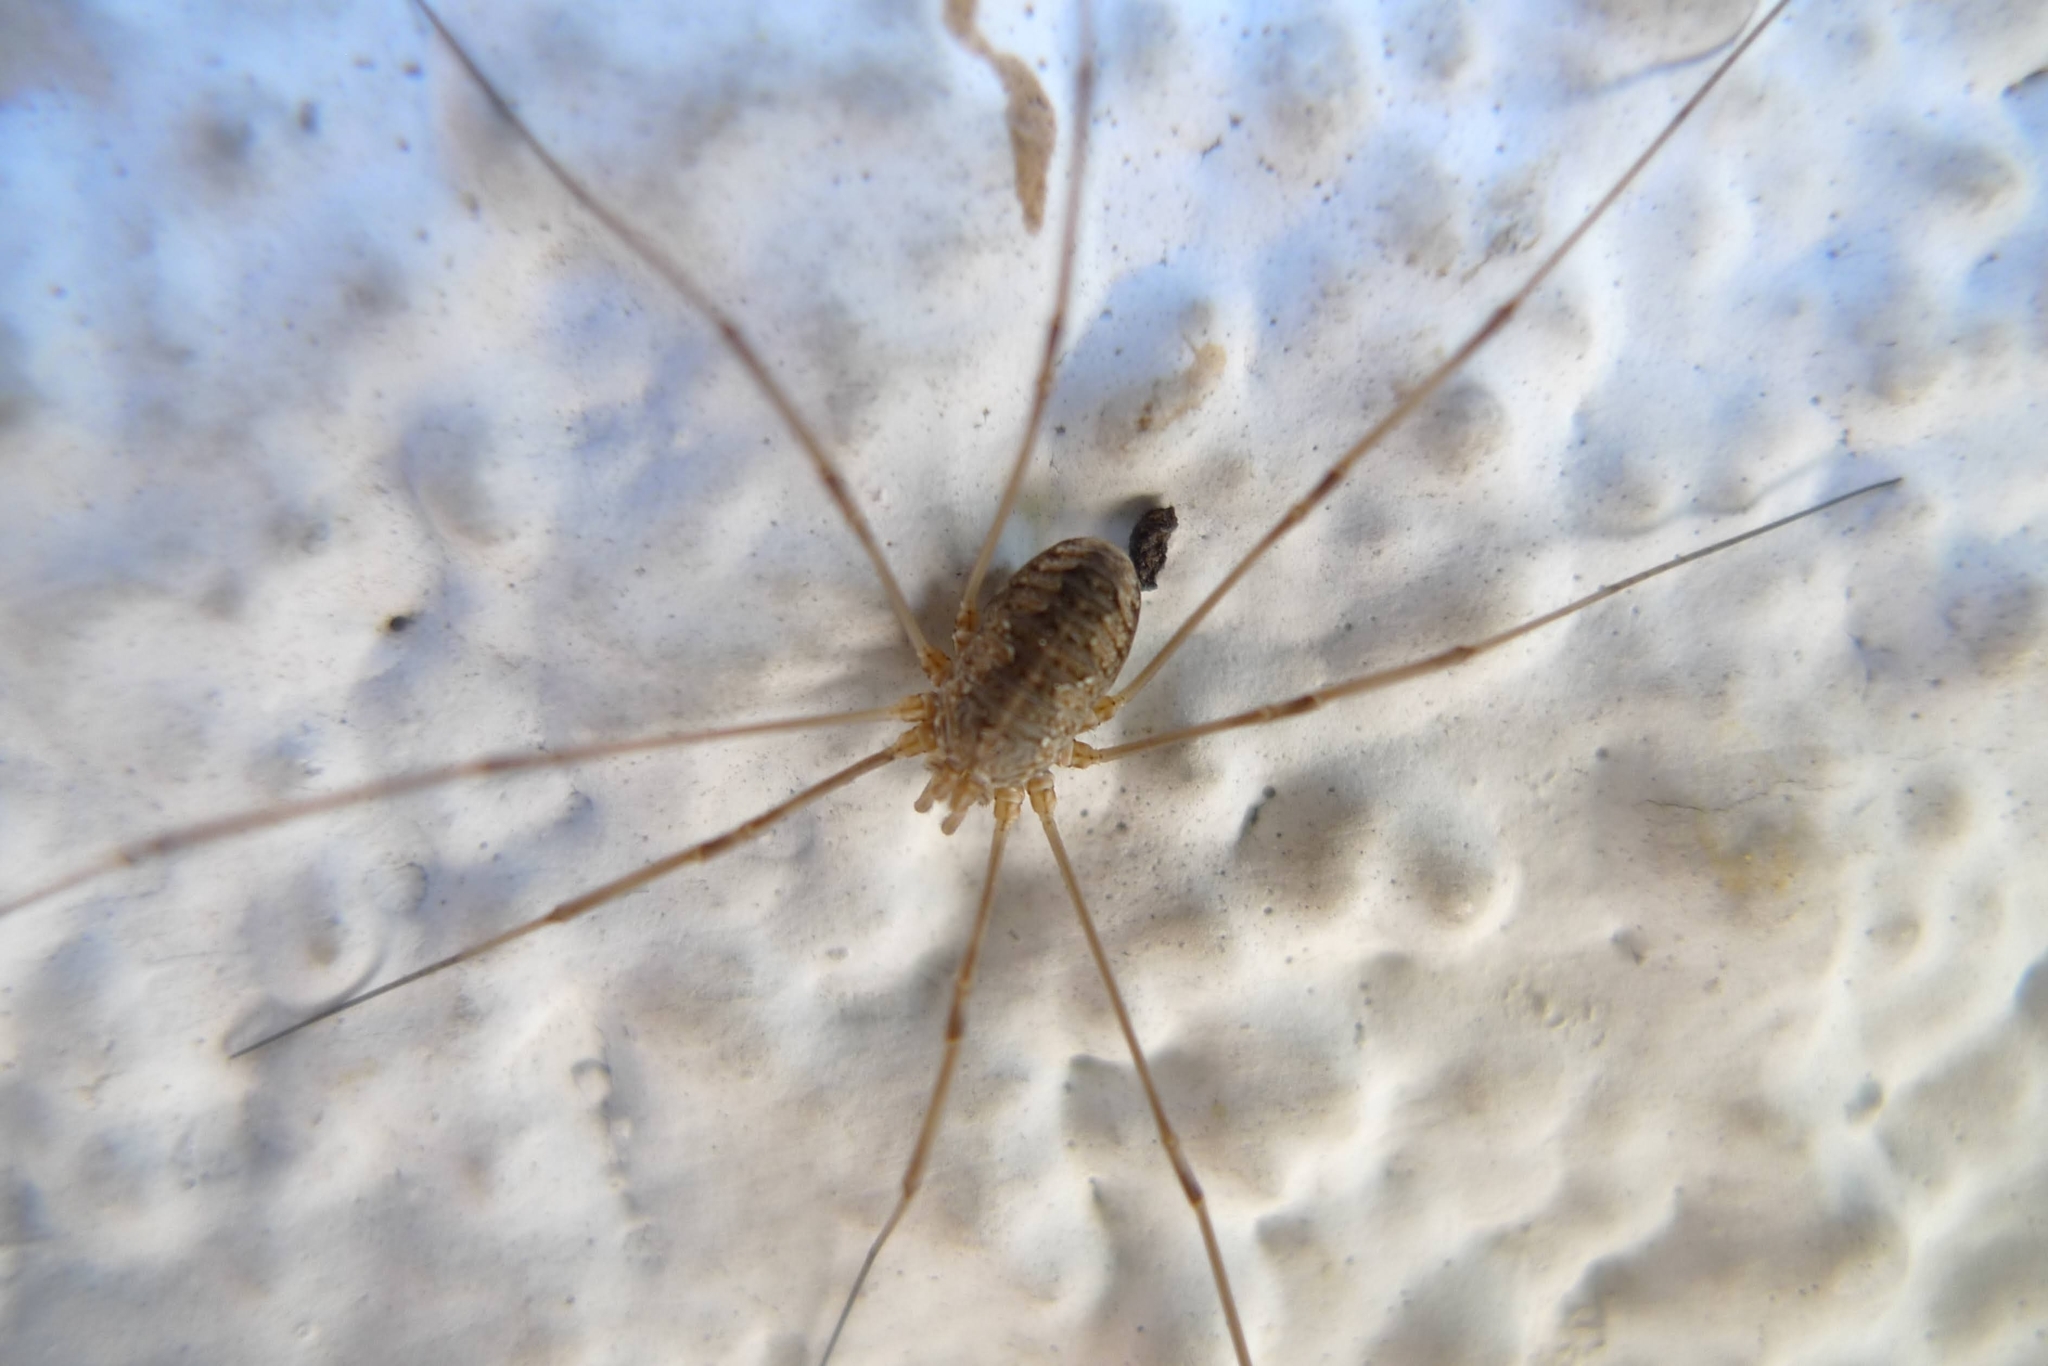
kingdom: Animalia
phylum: Arthropoda
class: Arachnida
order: Opiliones
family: Phalangiidae
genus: Phalangium
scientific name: Phalangium opilio
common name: Daddy longleg
